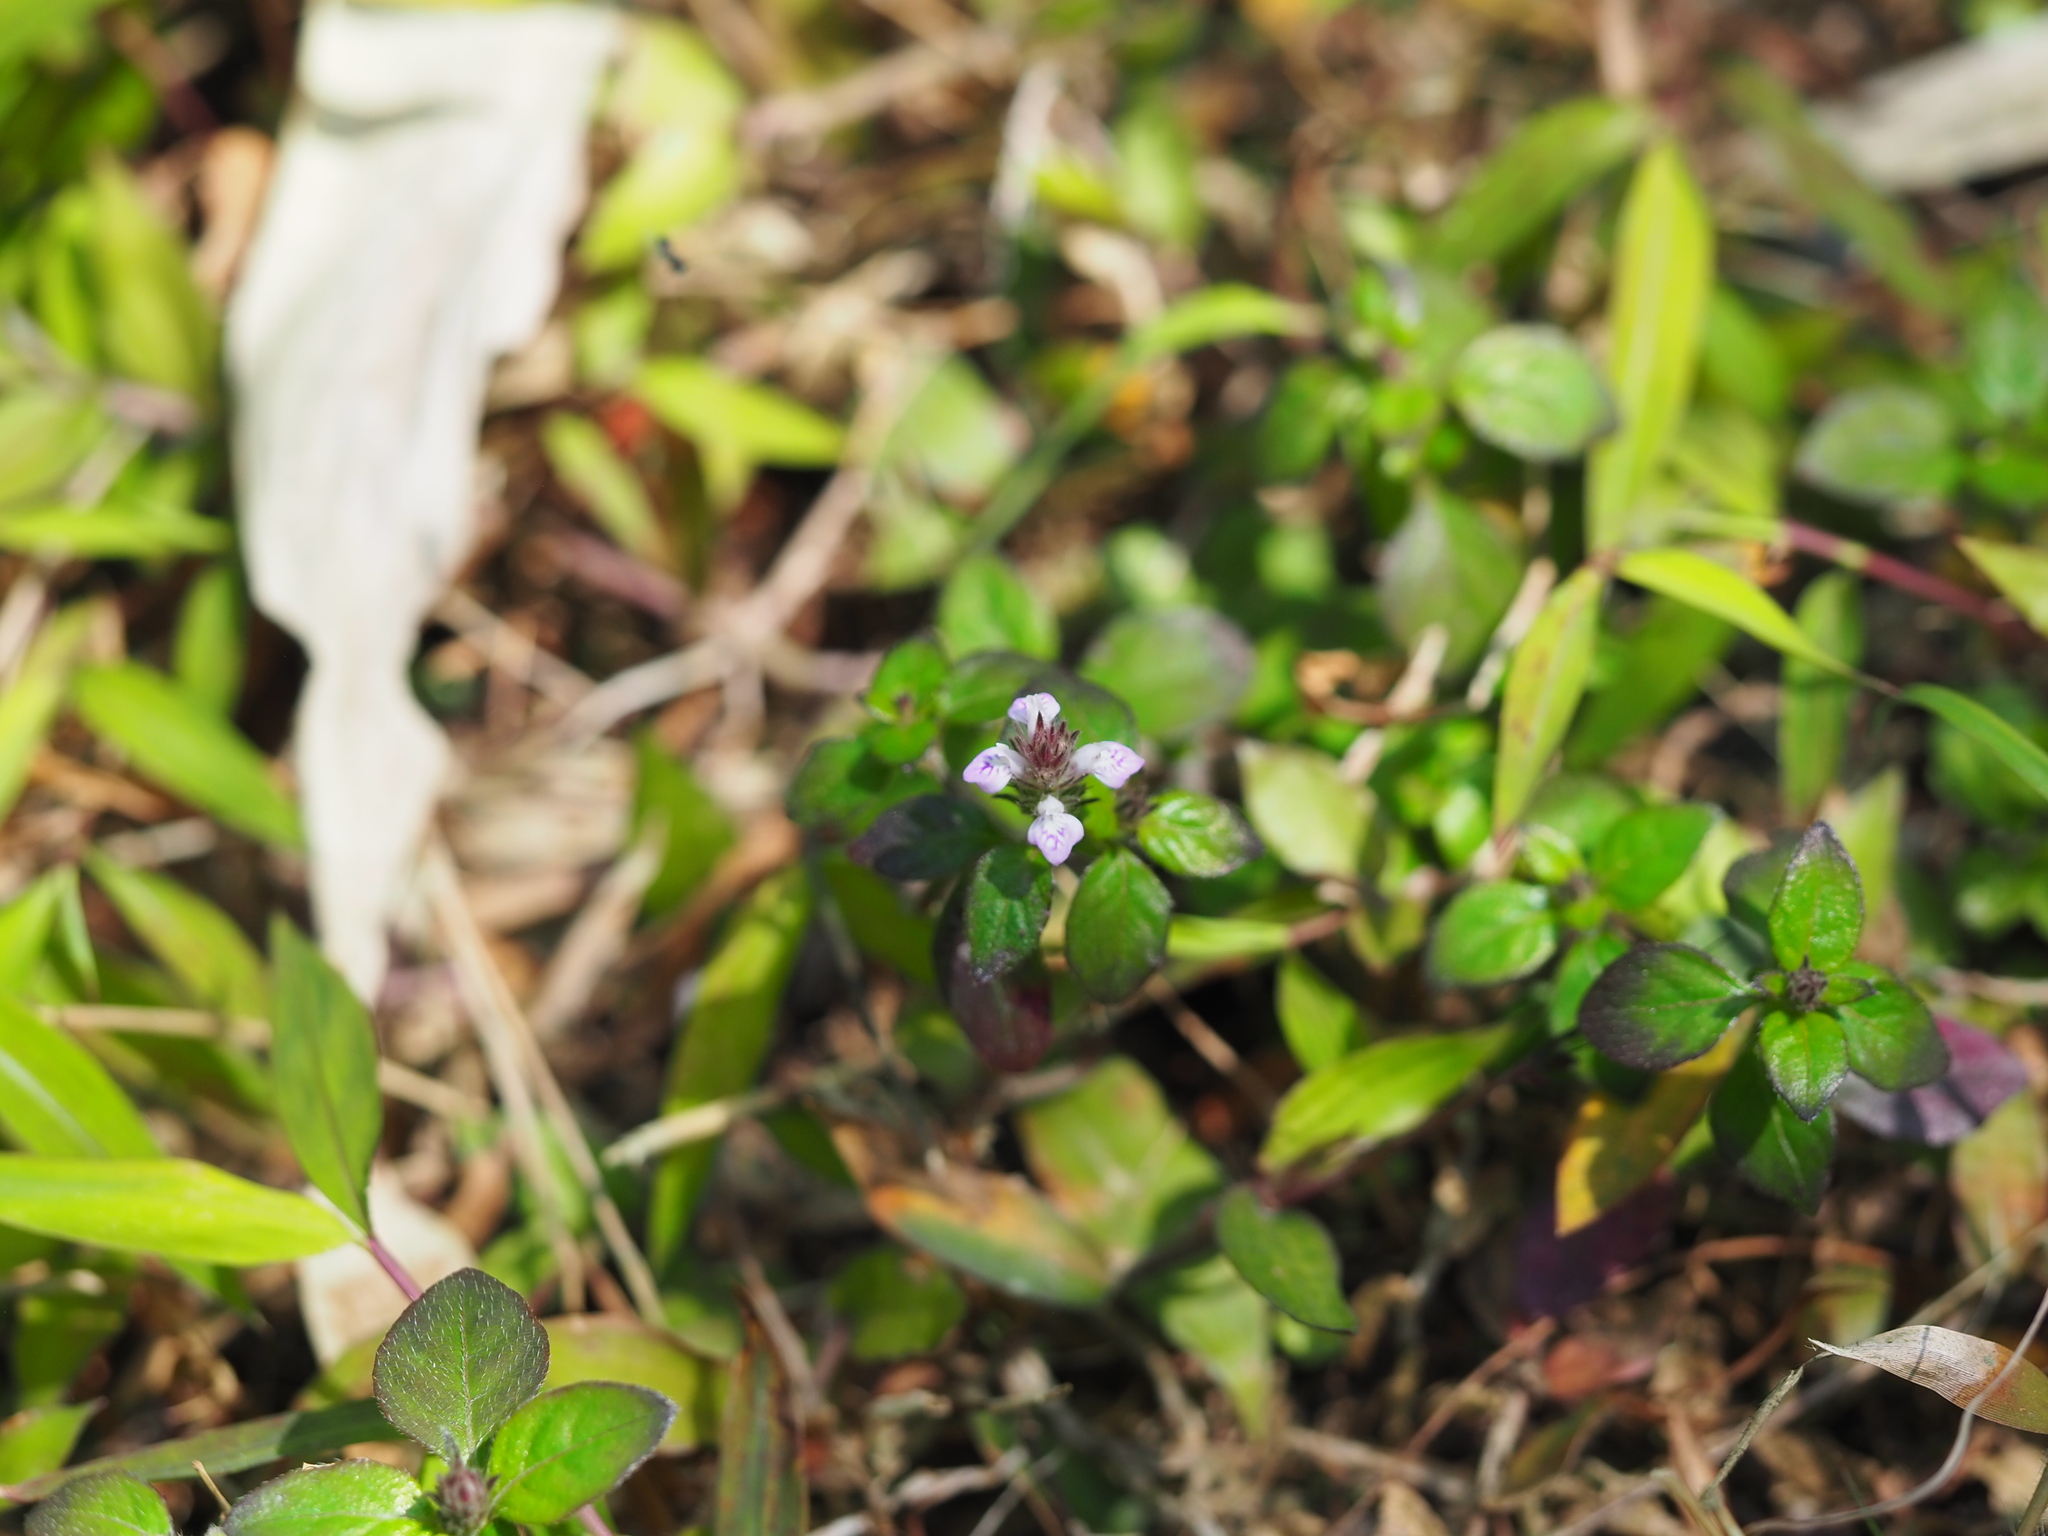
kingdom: Plantae
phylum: Tracheophyta
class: Magnoliopsida
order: Lamiales
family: Acanthaceae
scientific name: Acanthaceae
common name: Acanthaceae
